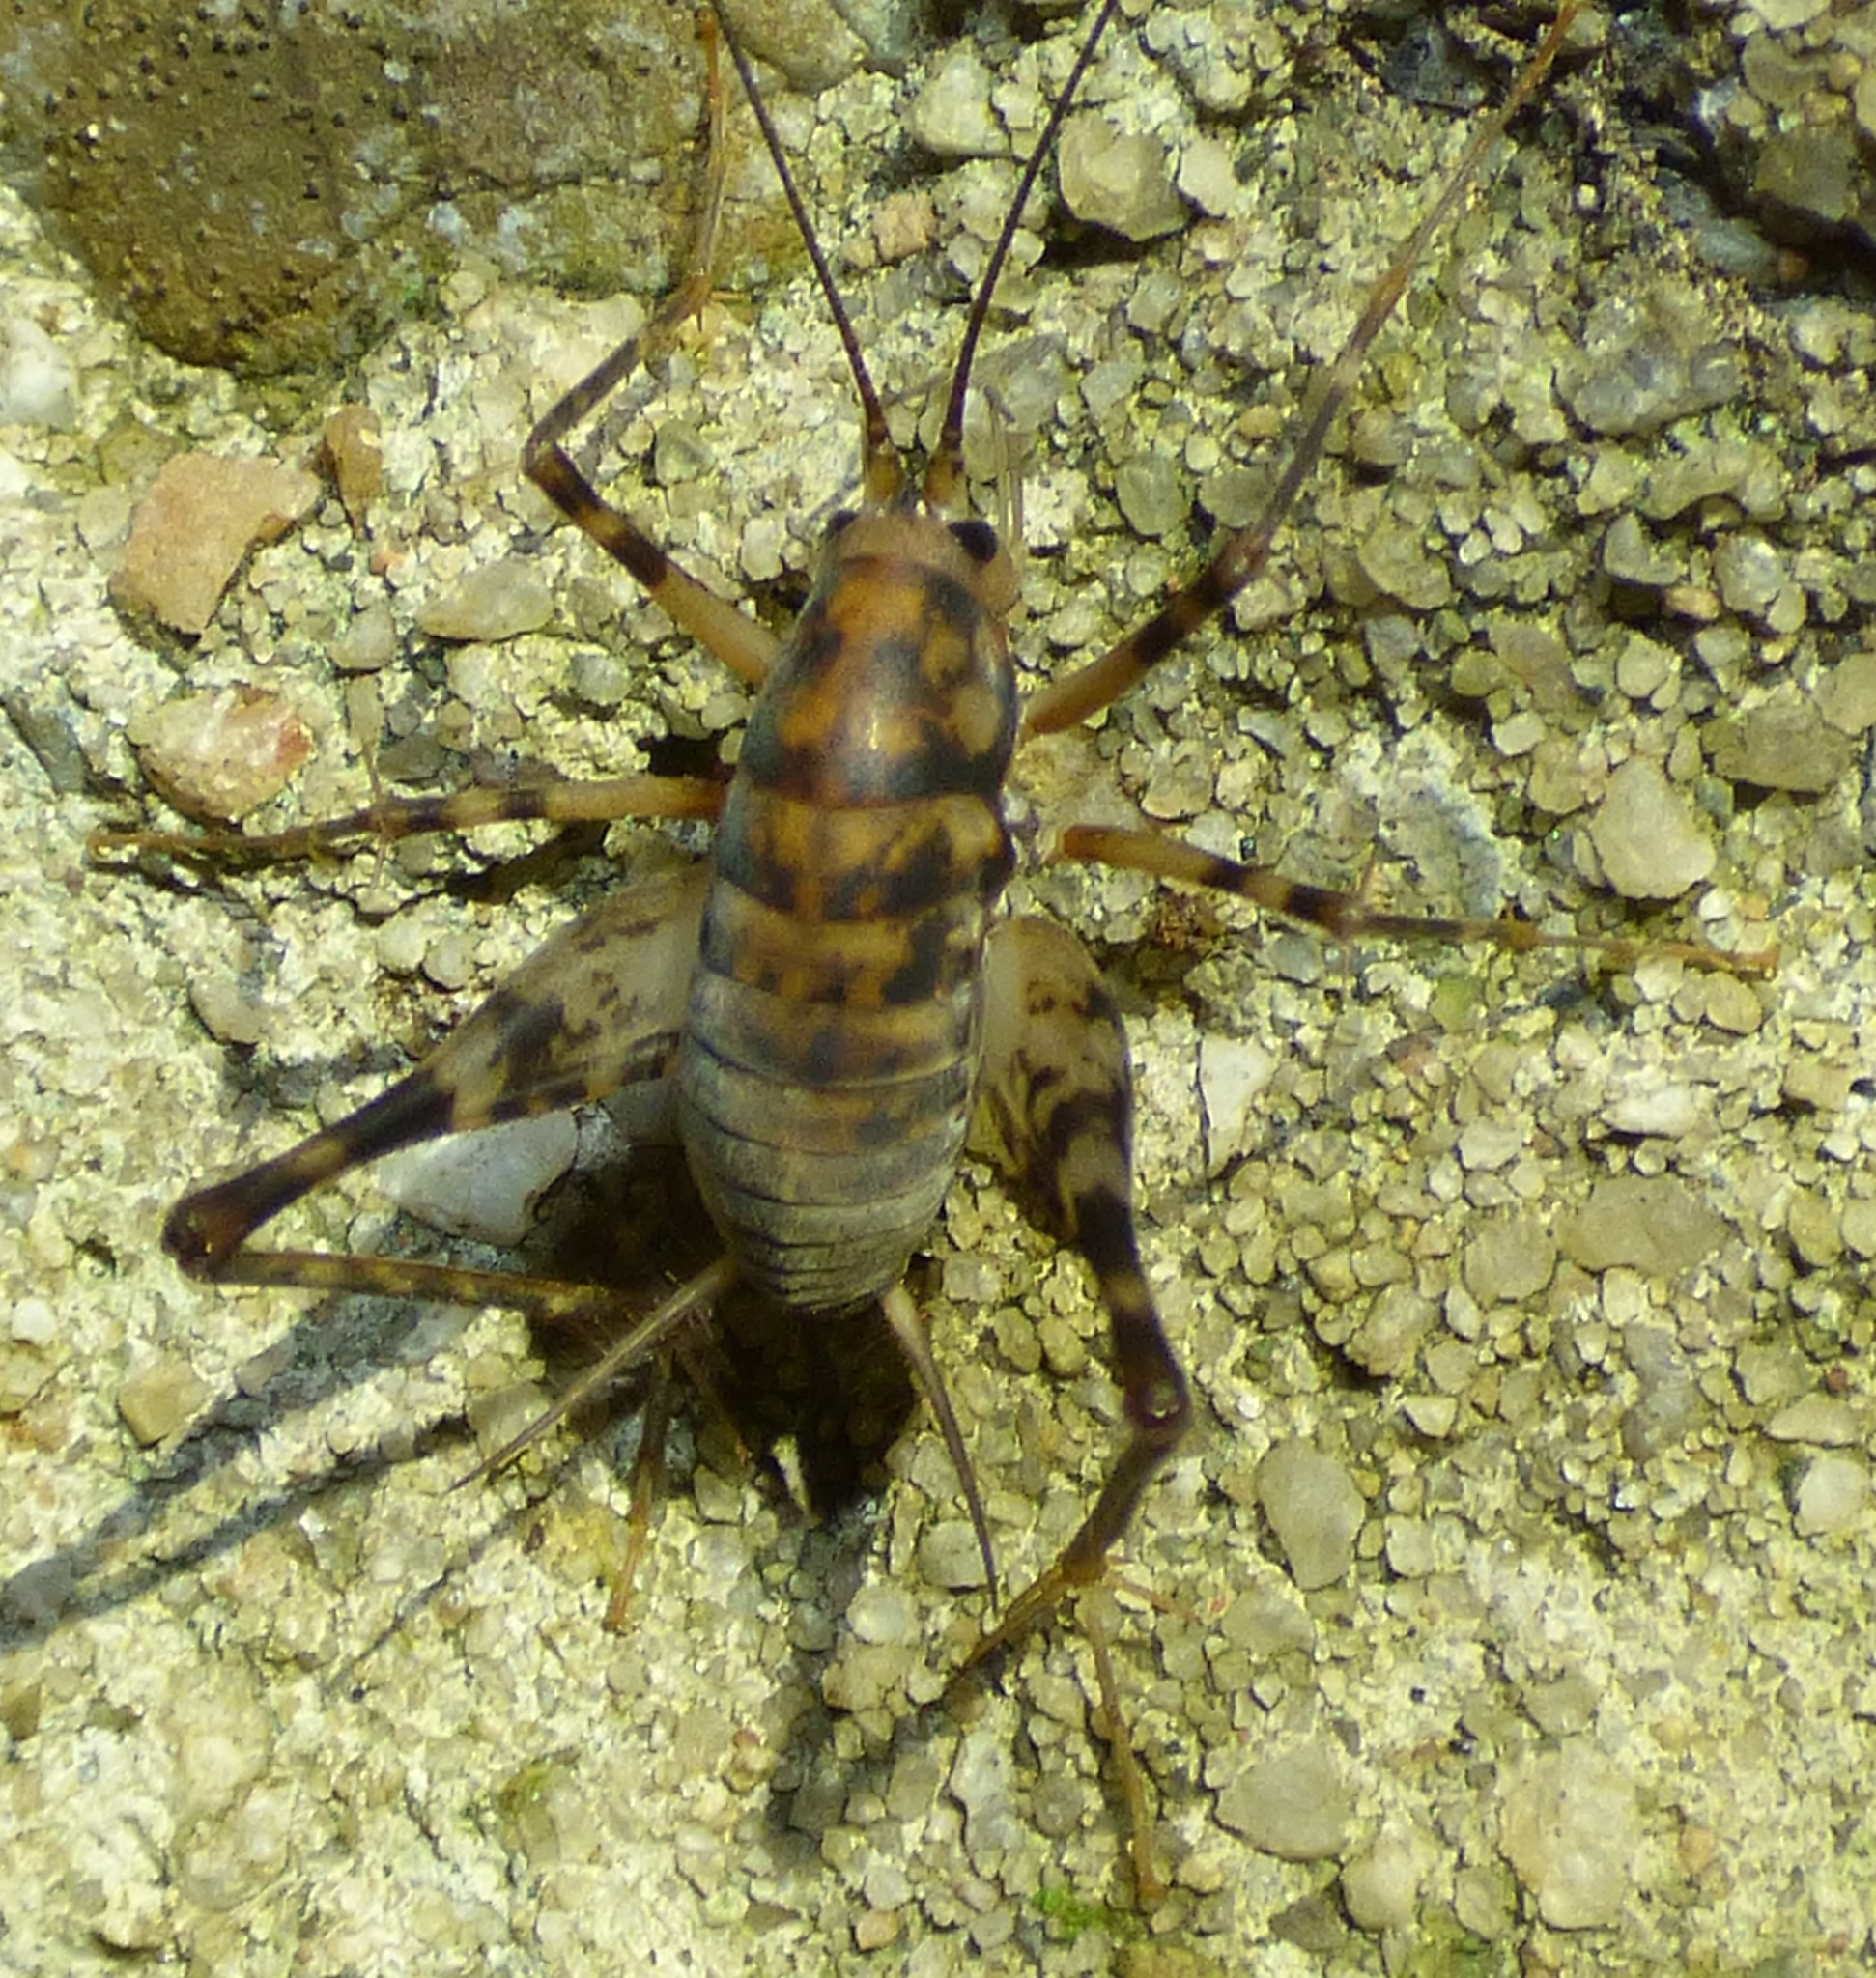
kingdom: Animalia
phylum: Arthropoda
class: Insecta
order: Orthoptera
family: Rhaphidophoridae
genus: Tachycines
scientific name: Tachycines asynamorus
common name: Greenhouse camel cricket
